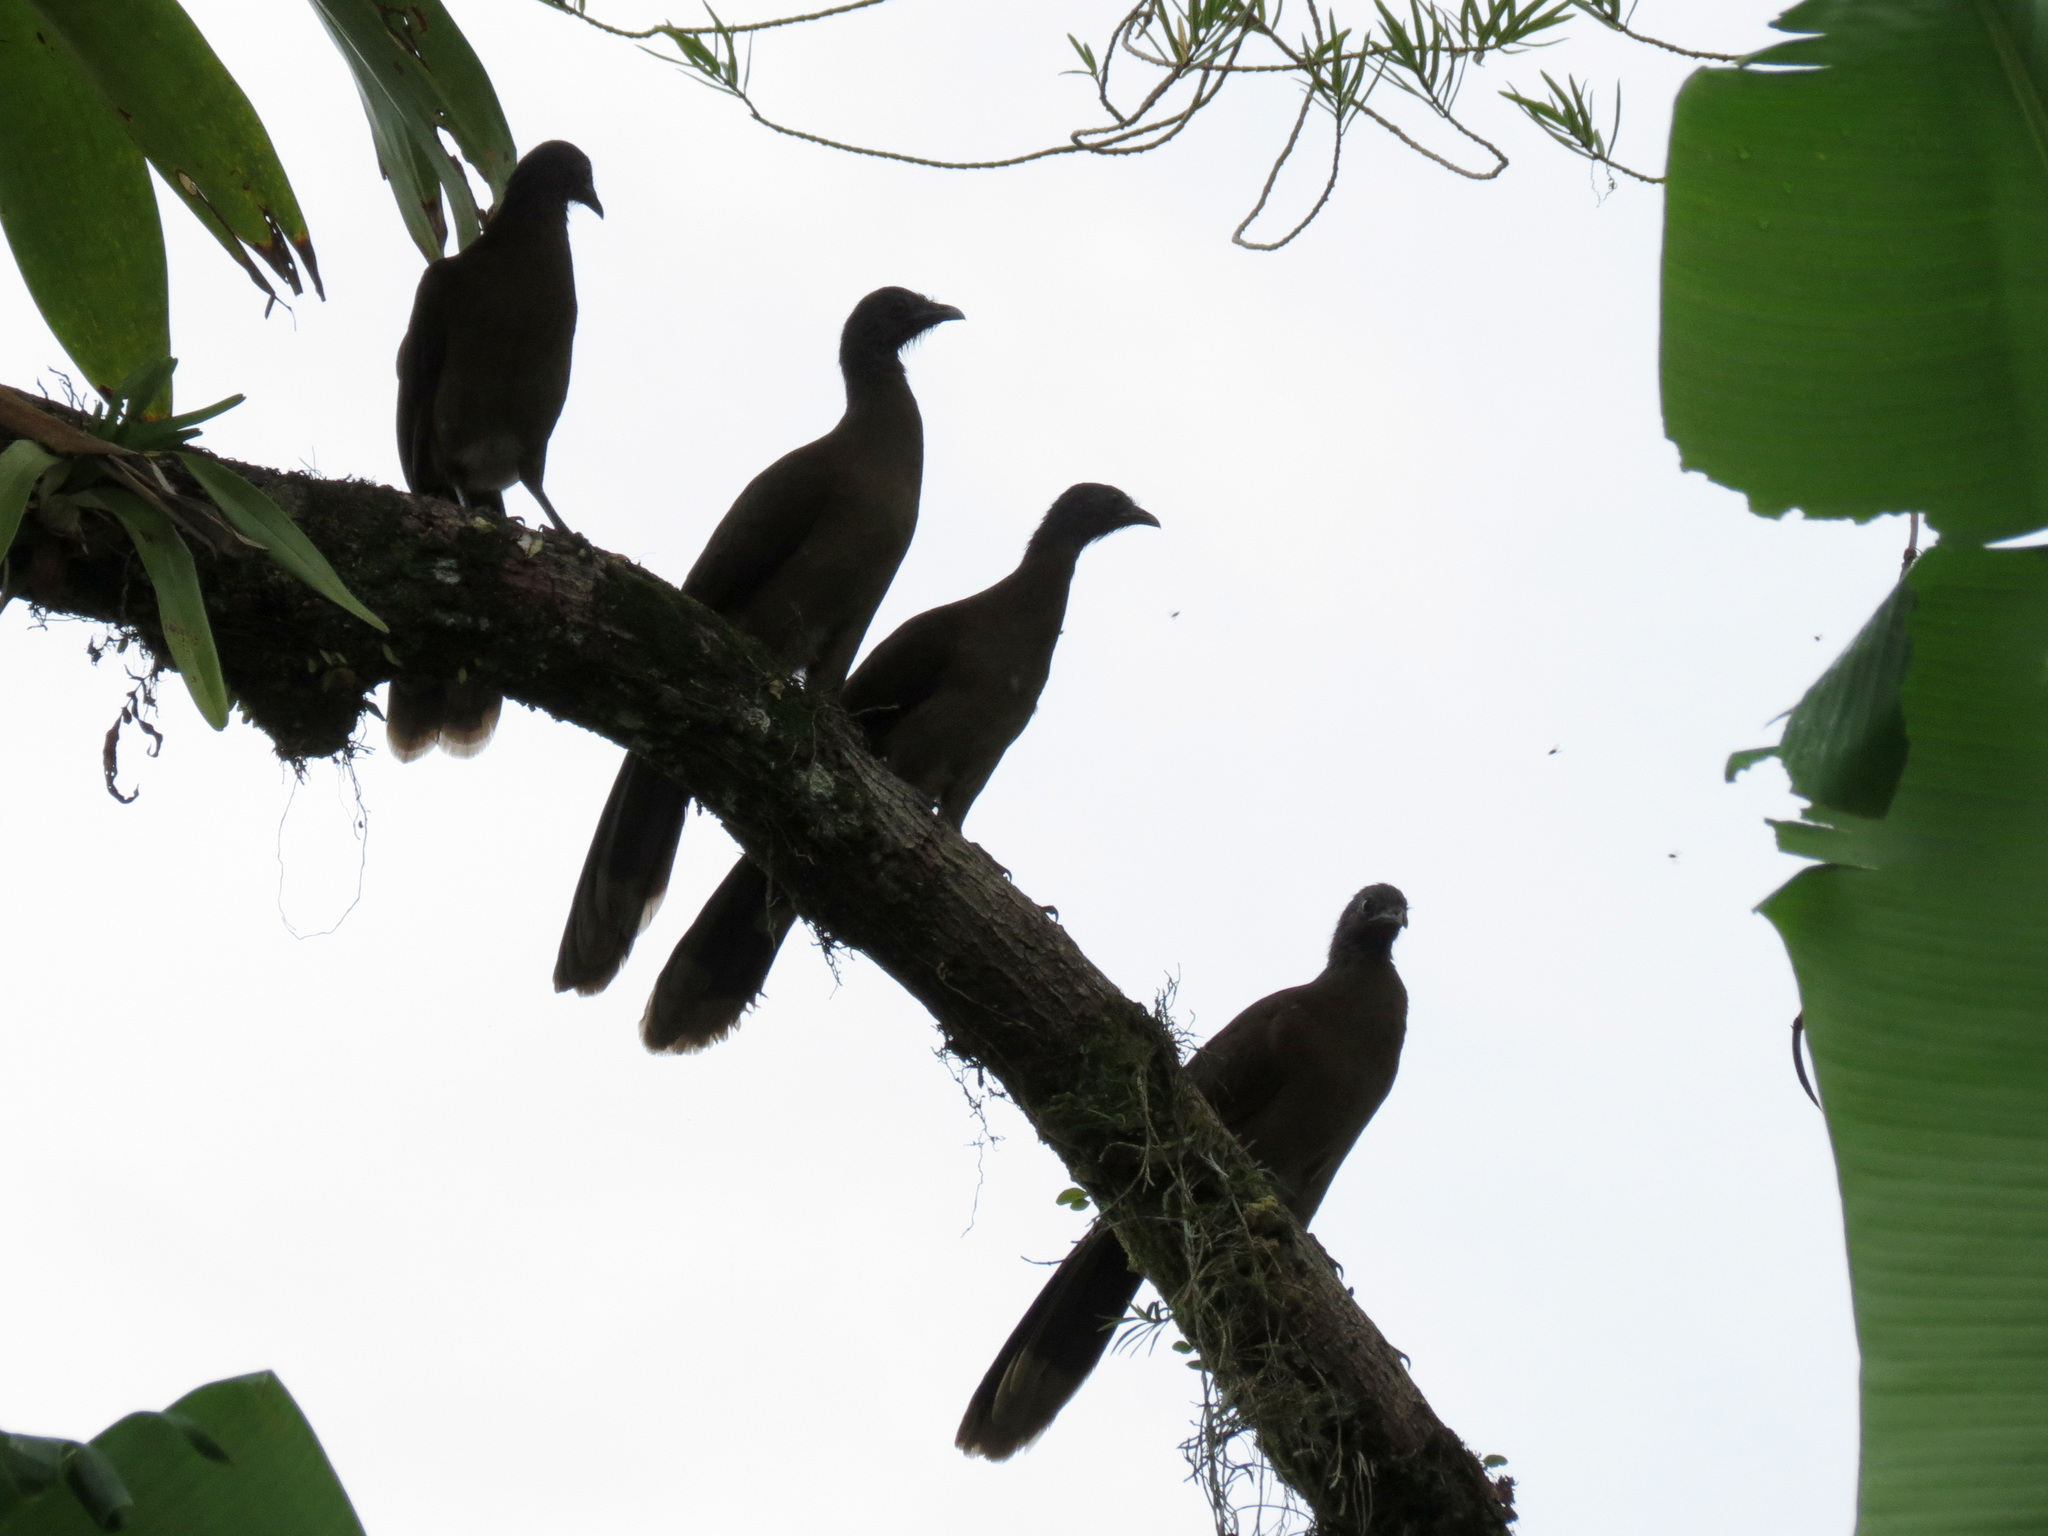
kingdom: Animalia
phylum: Chordata
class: Aves
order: Galliformes
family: Cracidae
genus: Ortalis
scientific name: Ortalis cinereiceps
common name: Grey-headed chachalaca
